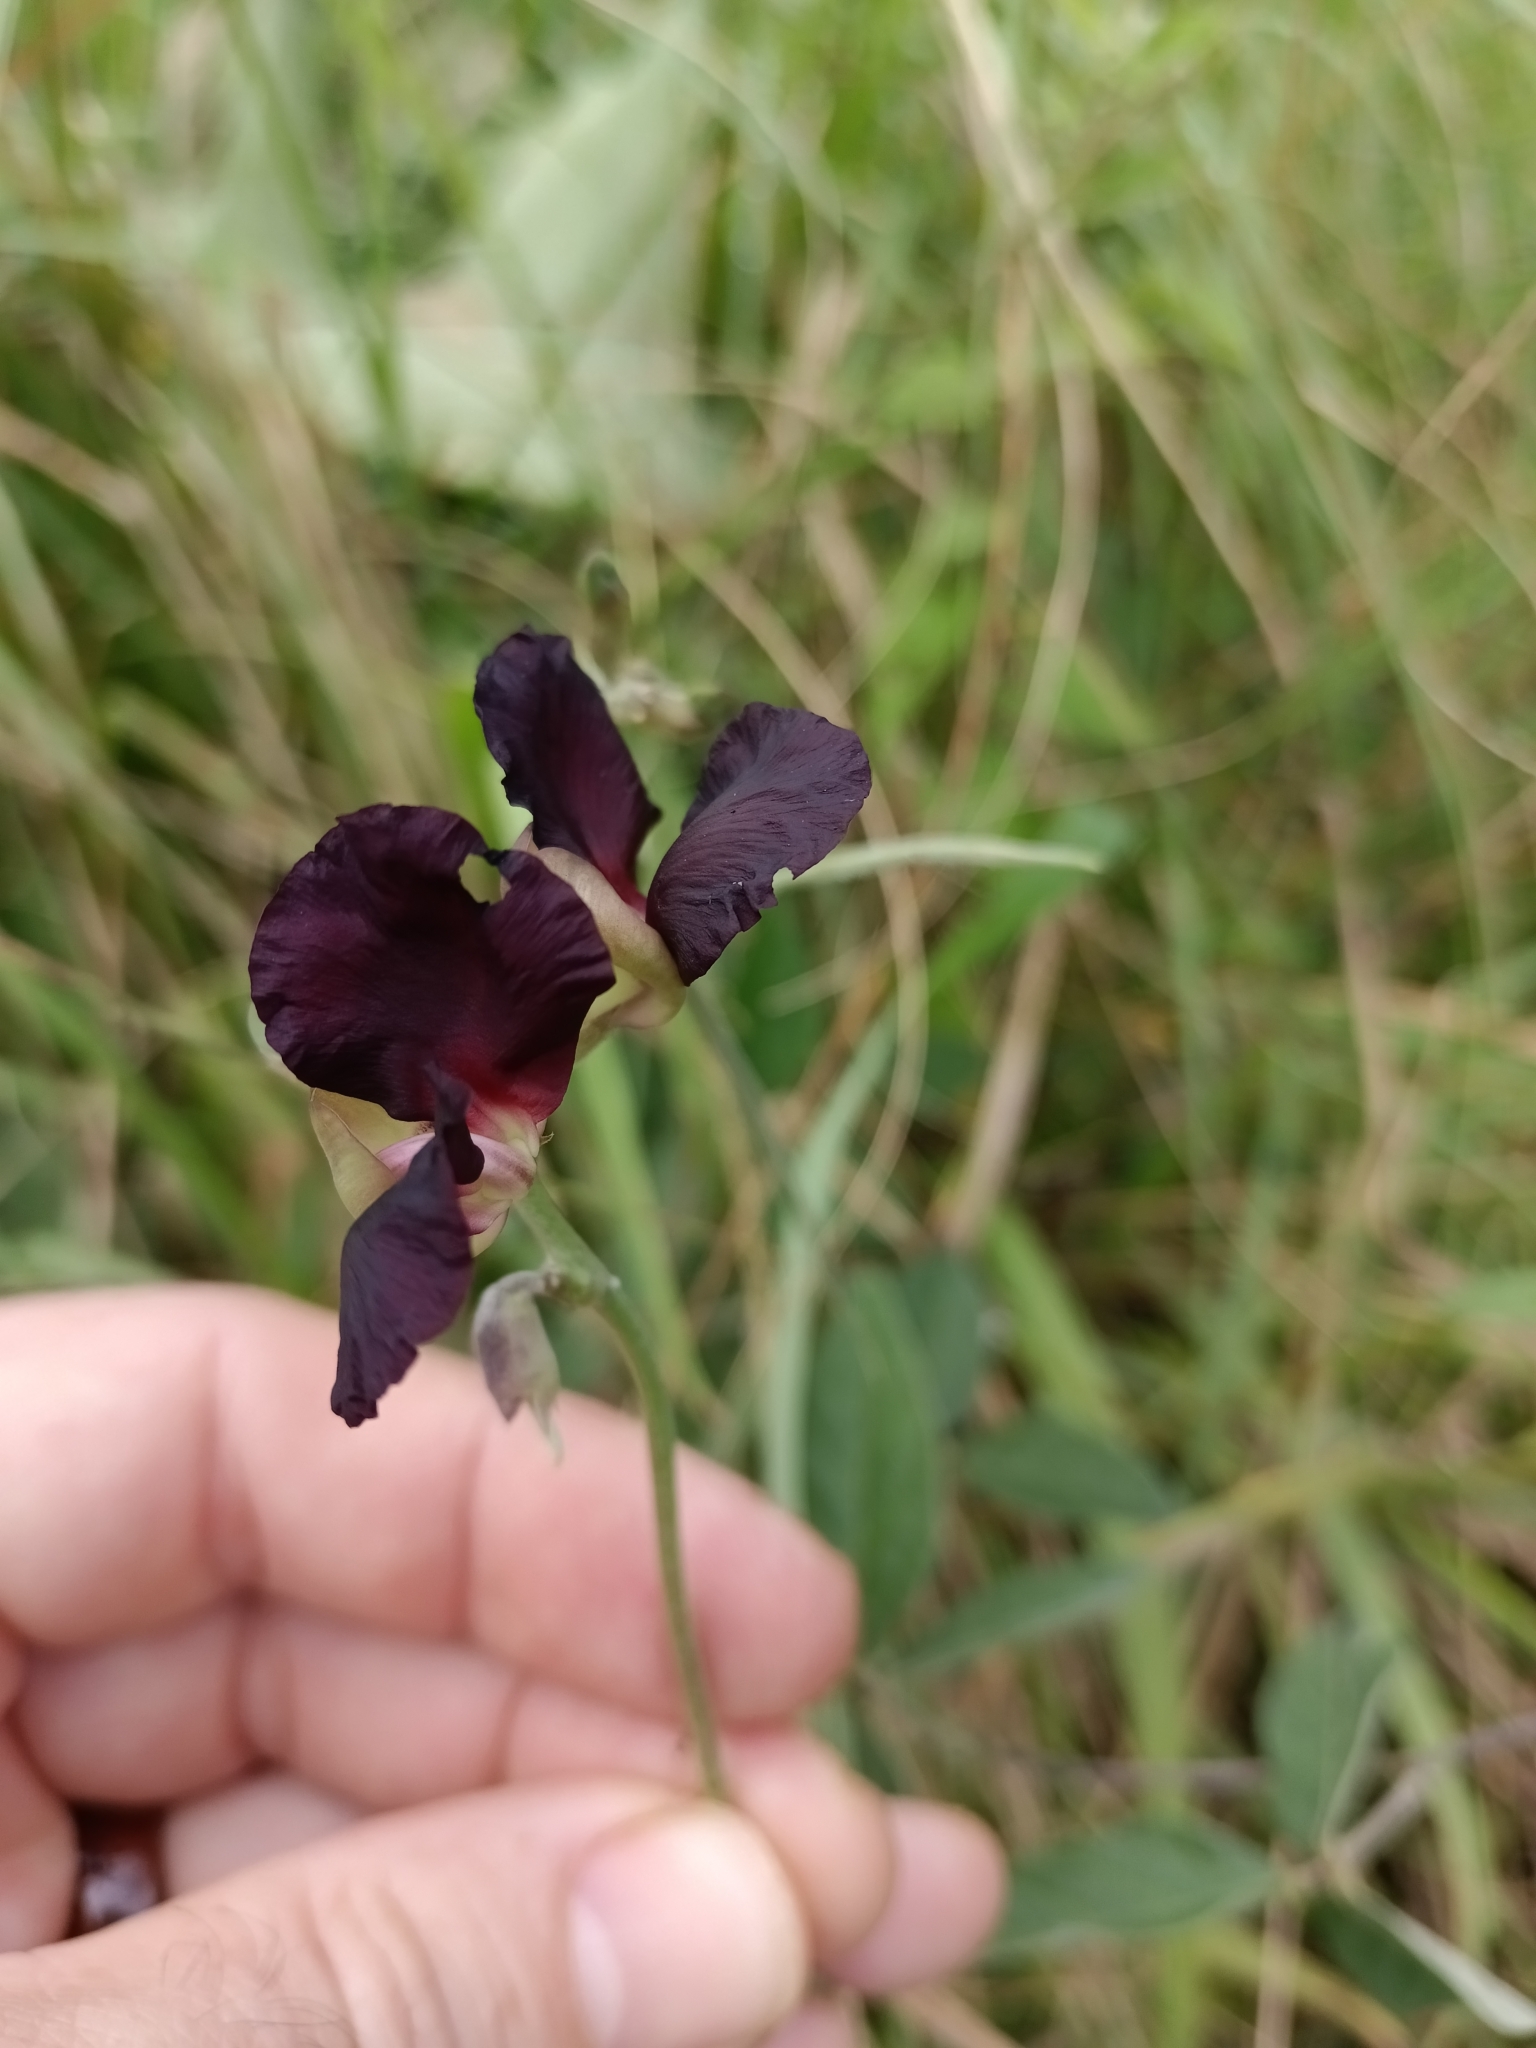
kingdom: Plantae
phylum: Tracheophyta
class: Magnoliopsida
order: Fabales
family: Fabaceae
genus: Macroptilium
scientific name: Macroptilium atropurpureum
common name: Purple bushbean
